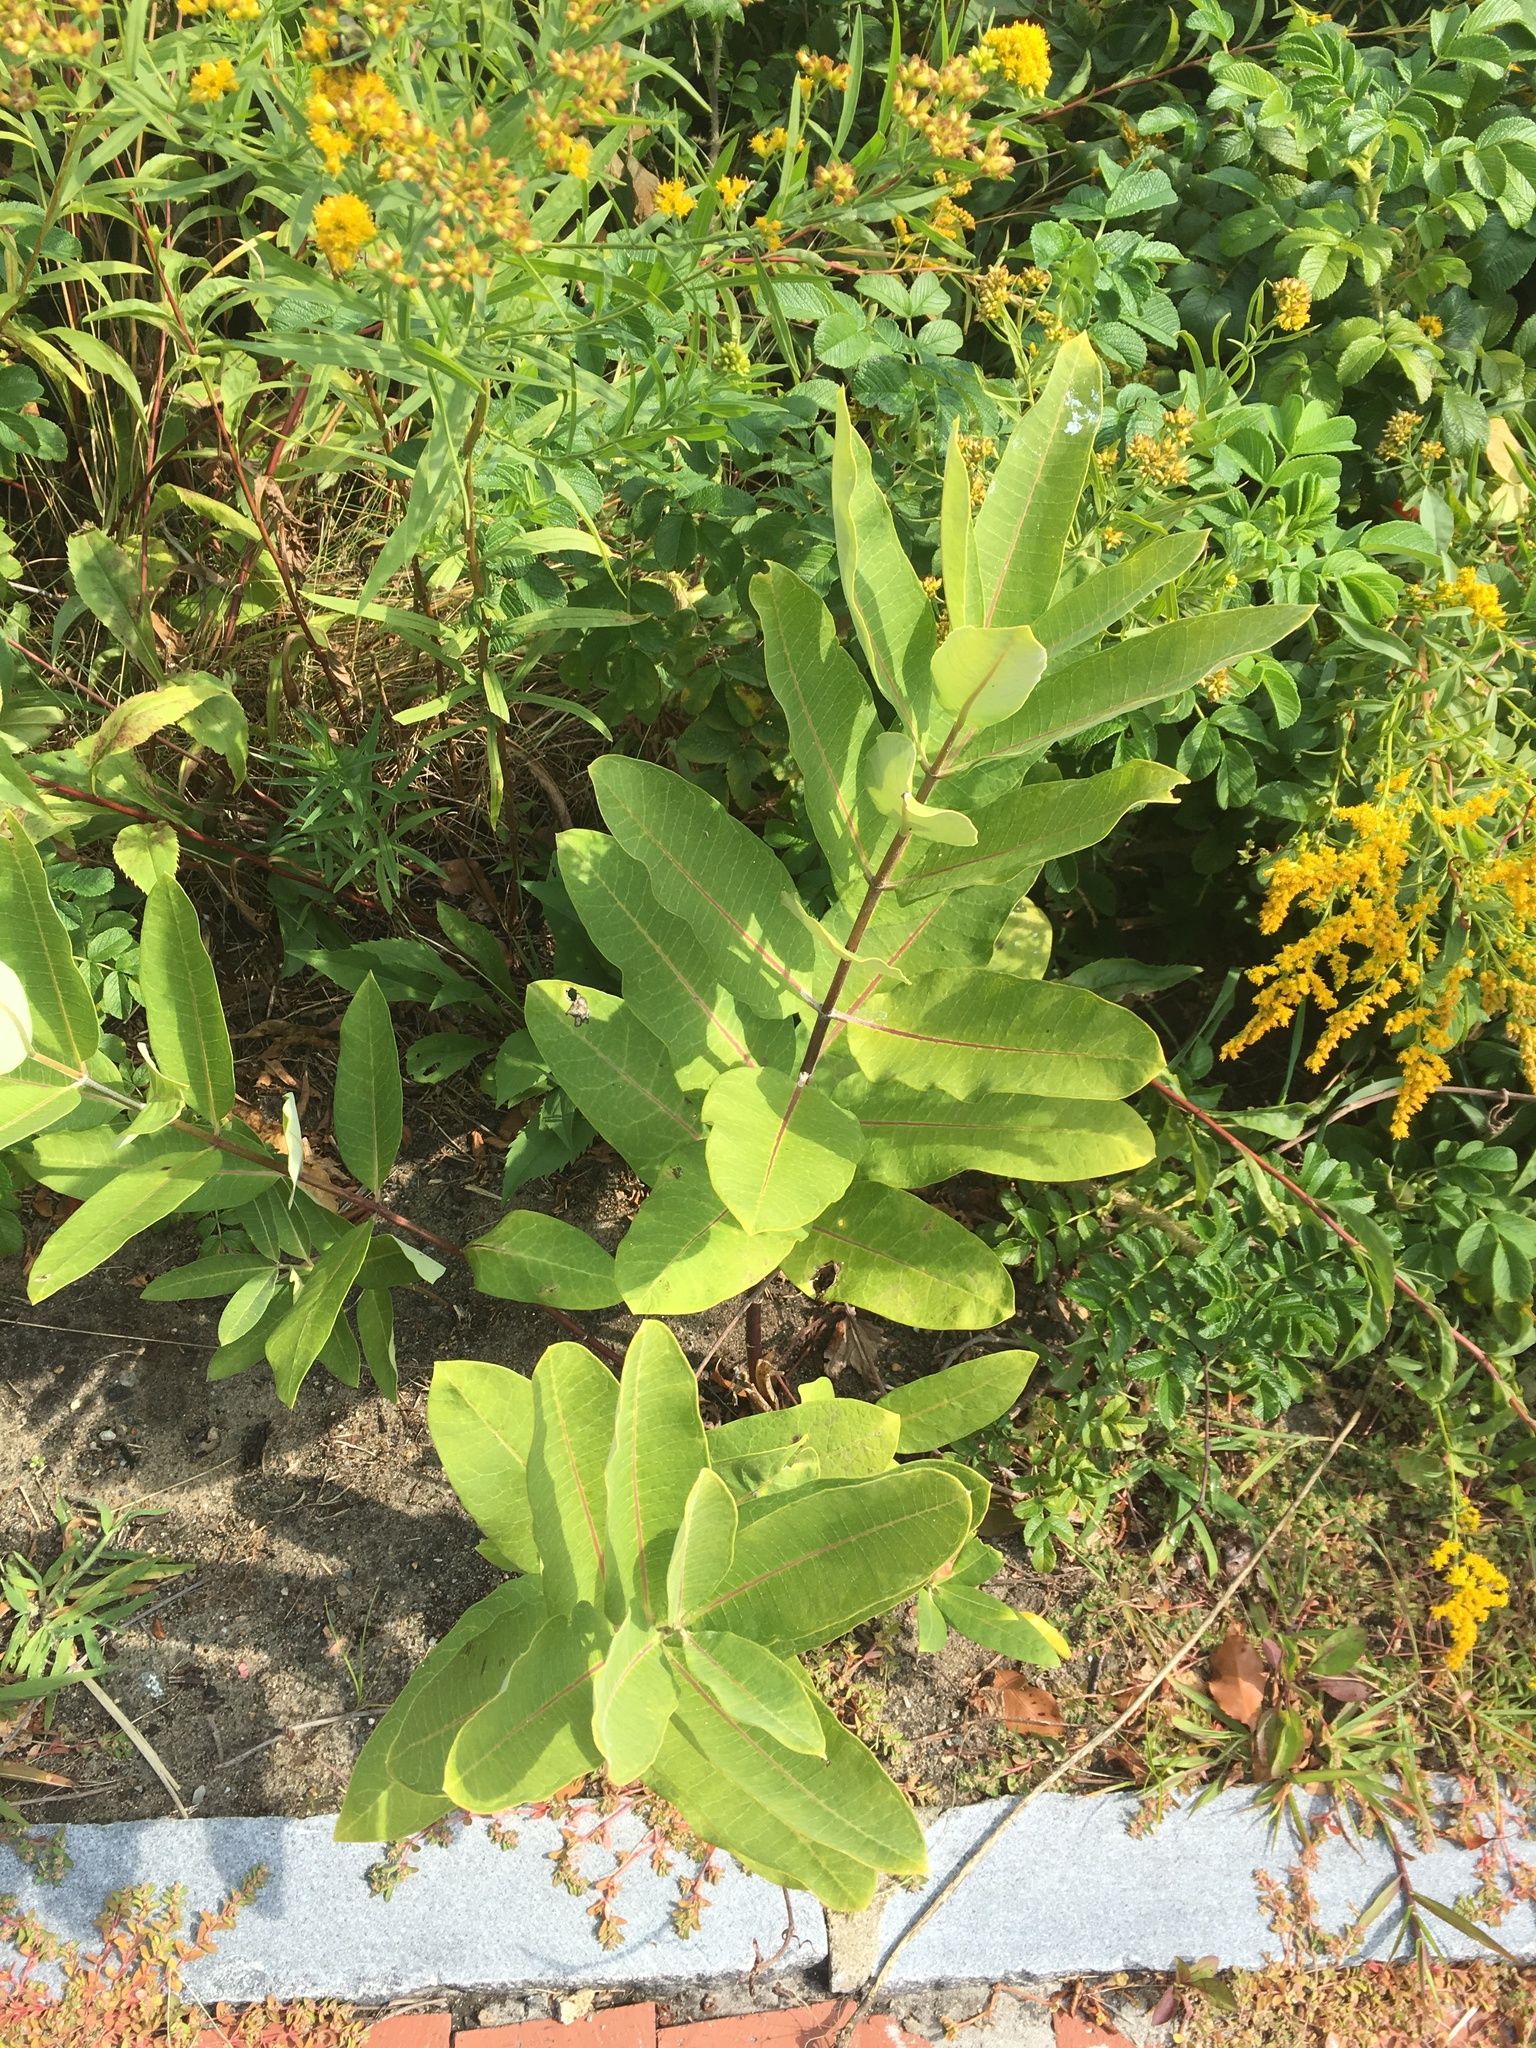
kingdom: Plantae
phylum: Tracheophyta
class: Magnoliopsida
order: Gentianales
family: Apocynaceae
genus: Asclepias
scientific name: Asclepias syriaca
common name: Common milkweed
